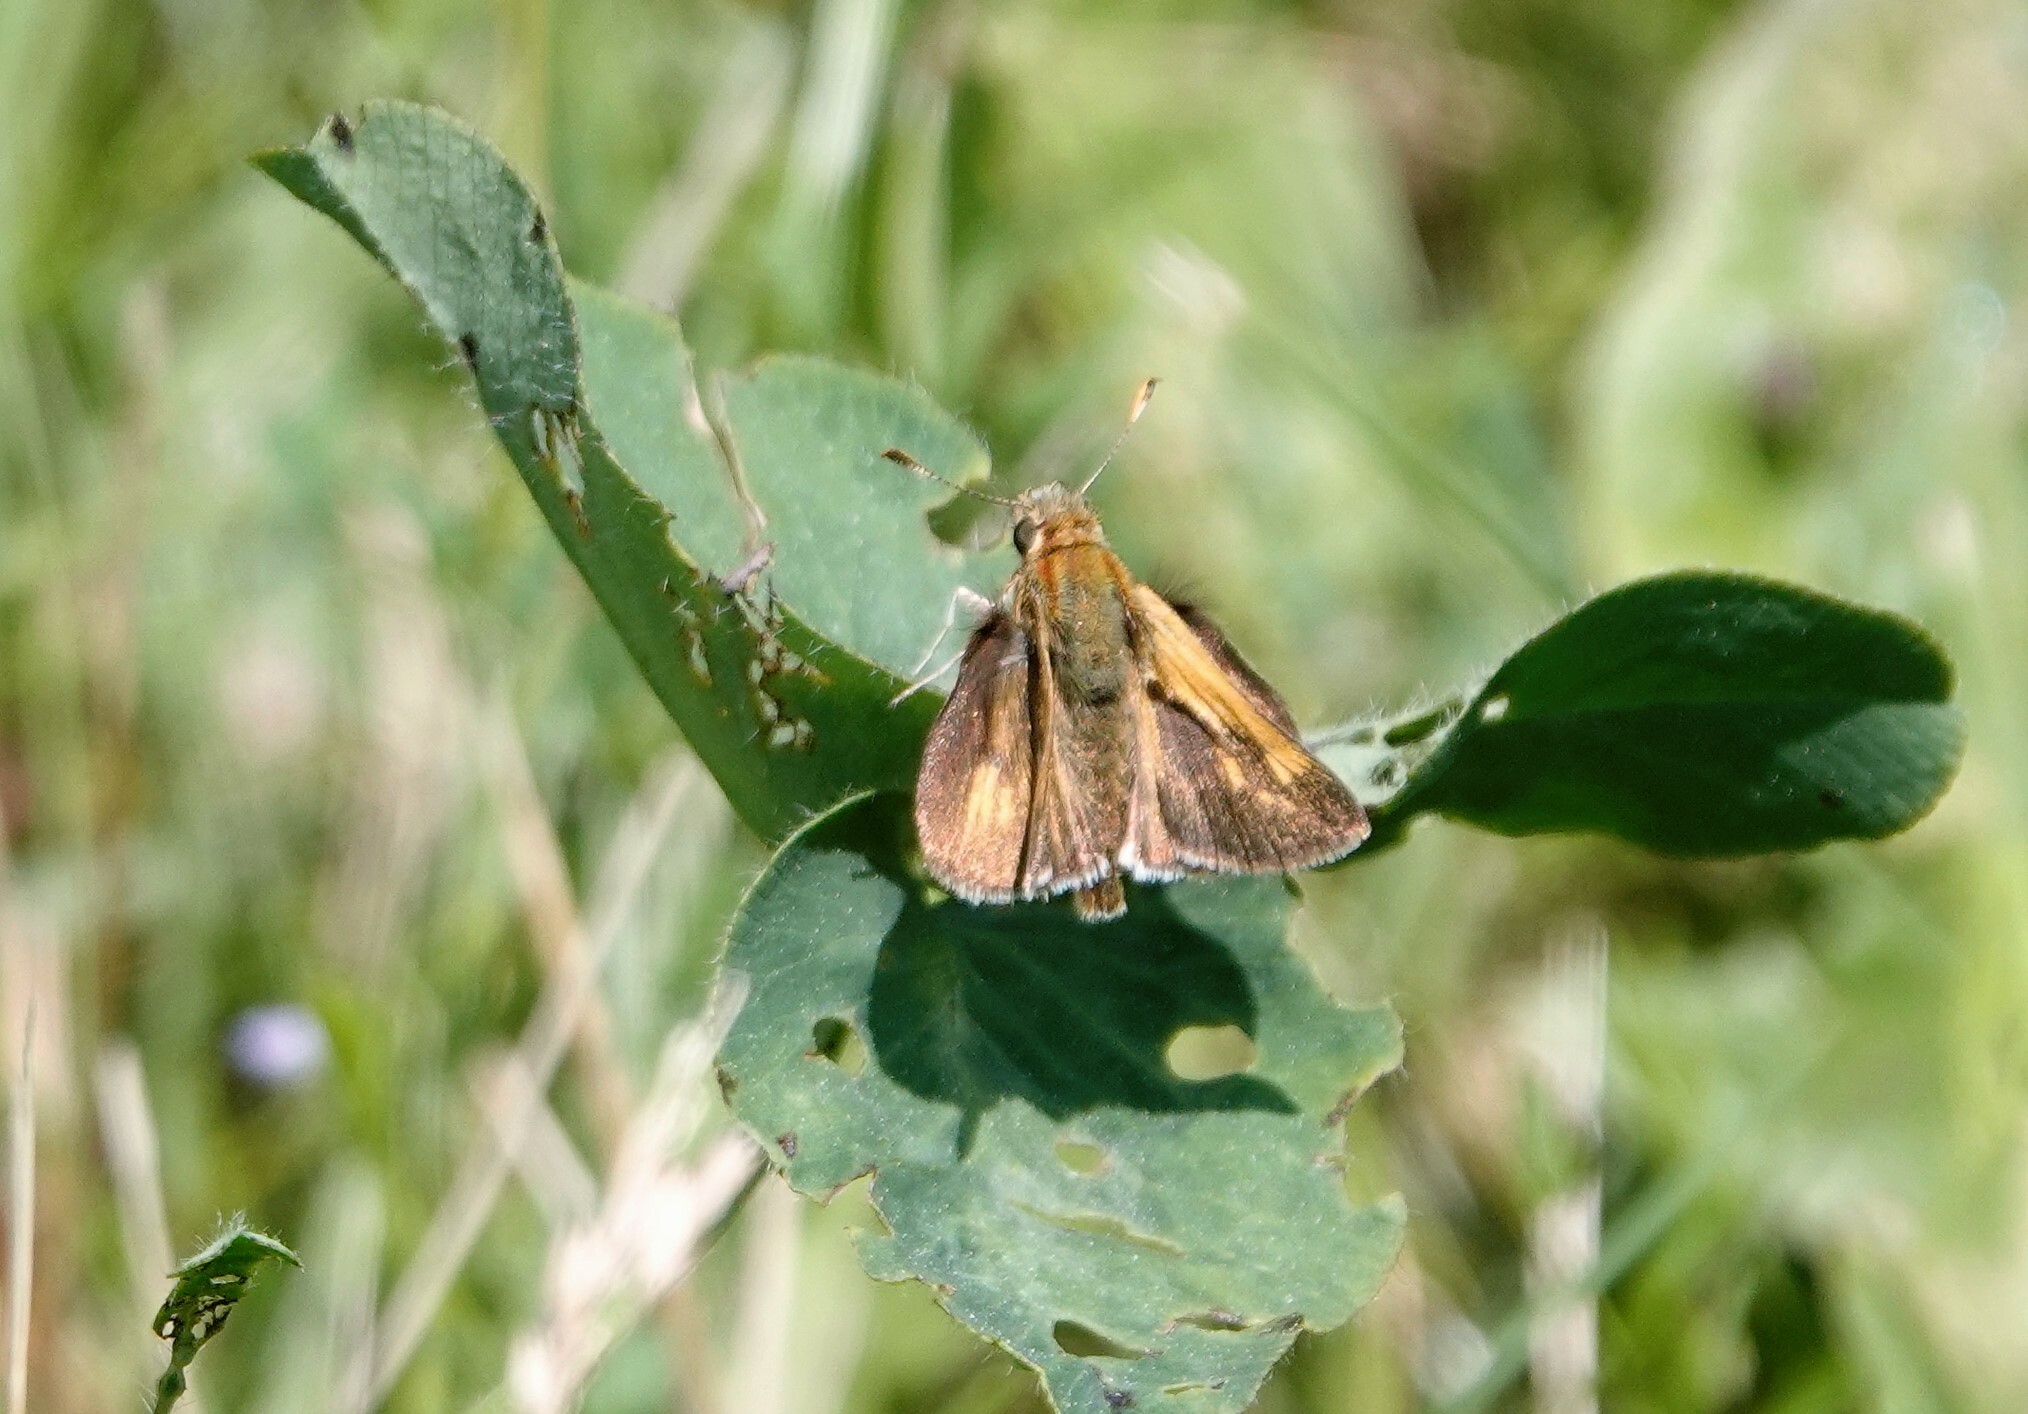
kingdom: Animalia
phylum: Arthropoda
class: Insecta
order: Lepidoptera
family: Hesperiidae
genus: Polites
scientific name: Polites coras
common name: Peck's skipper
